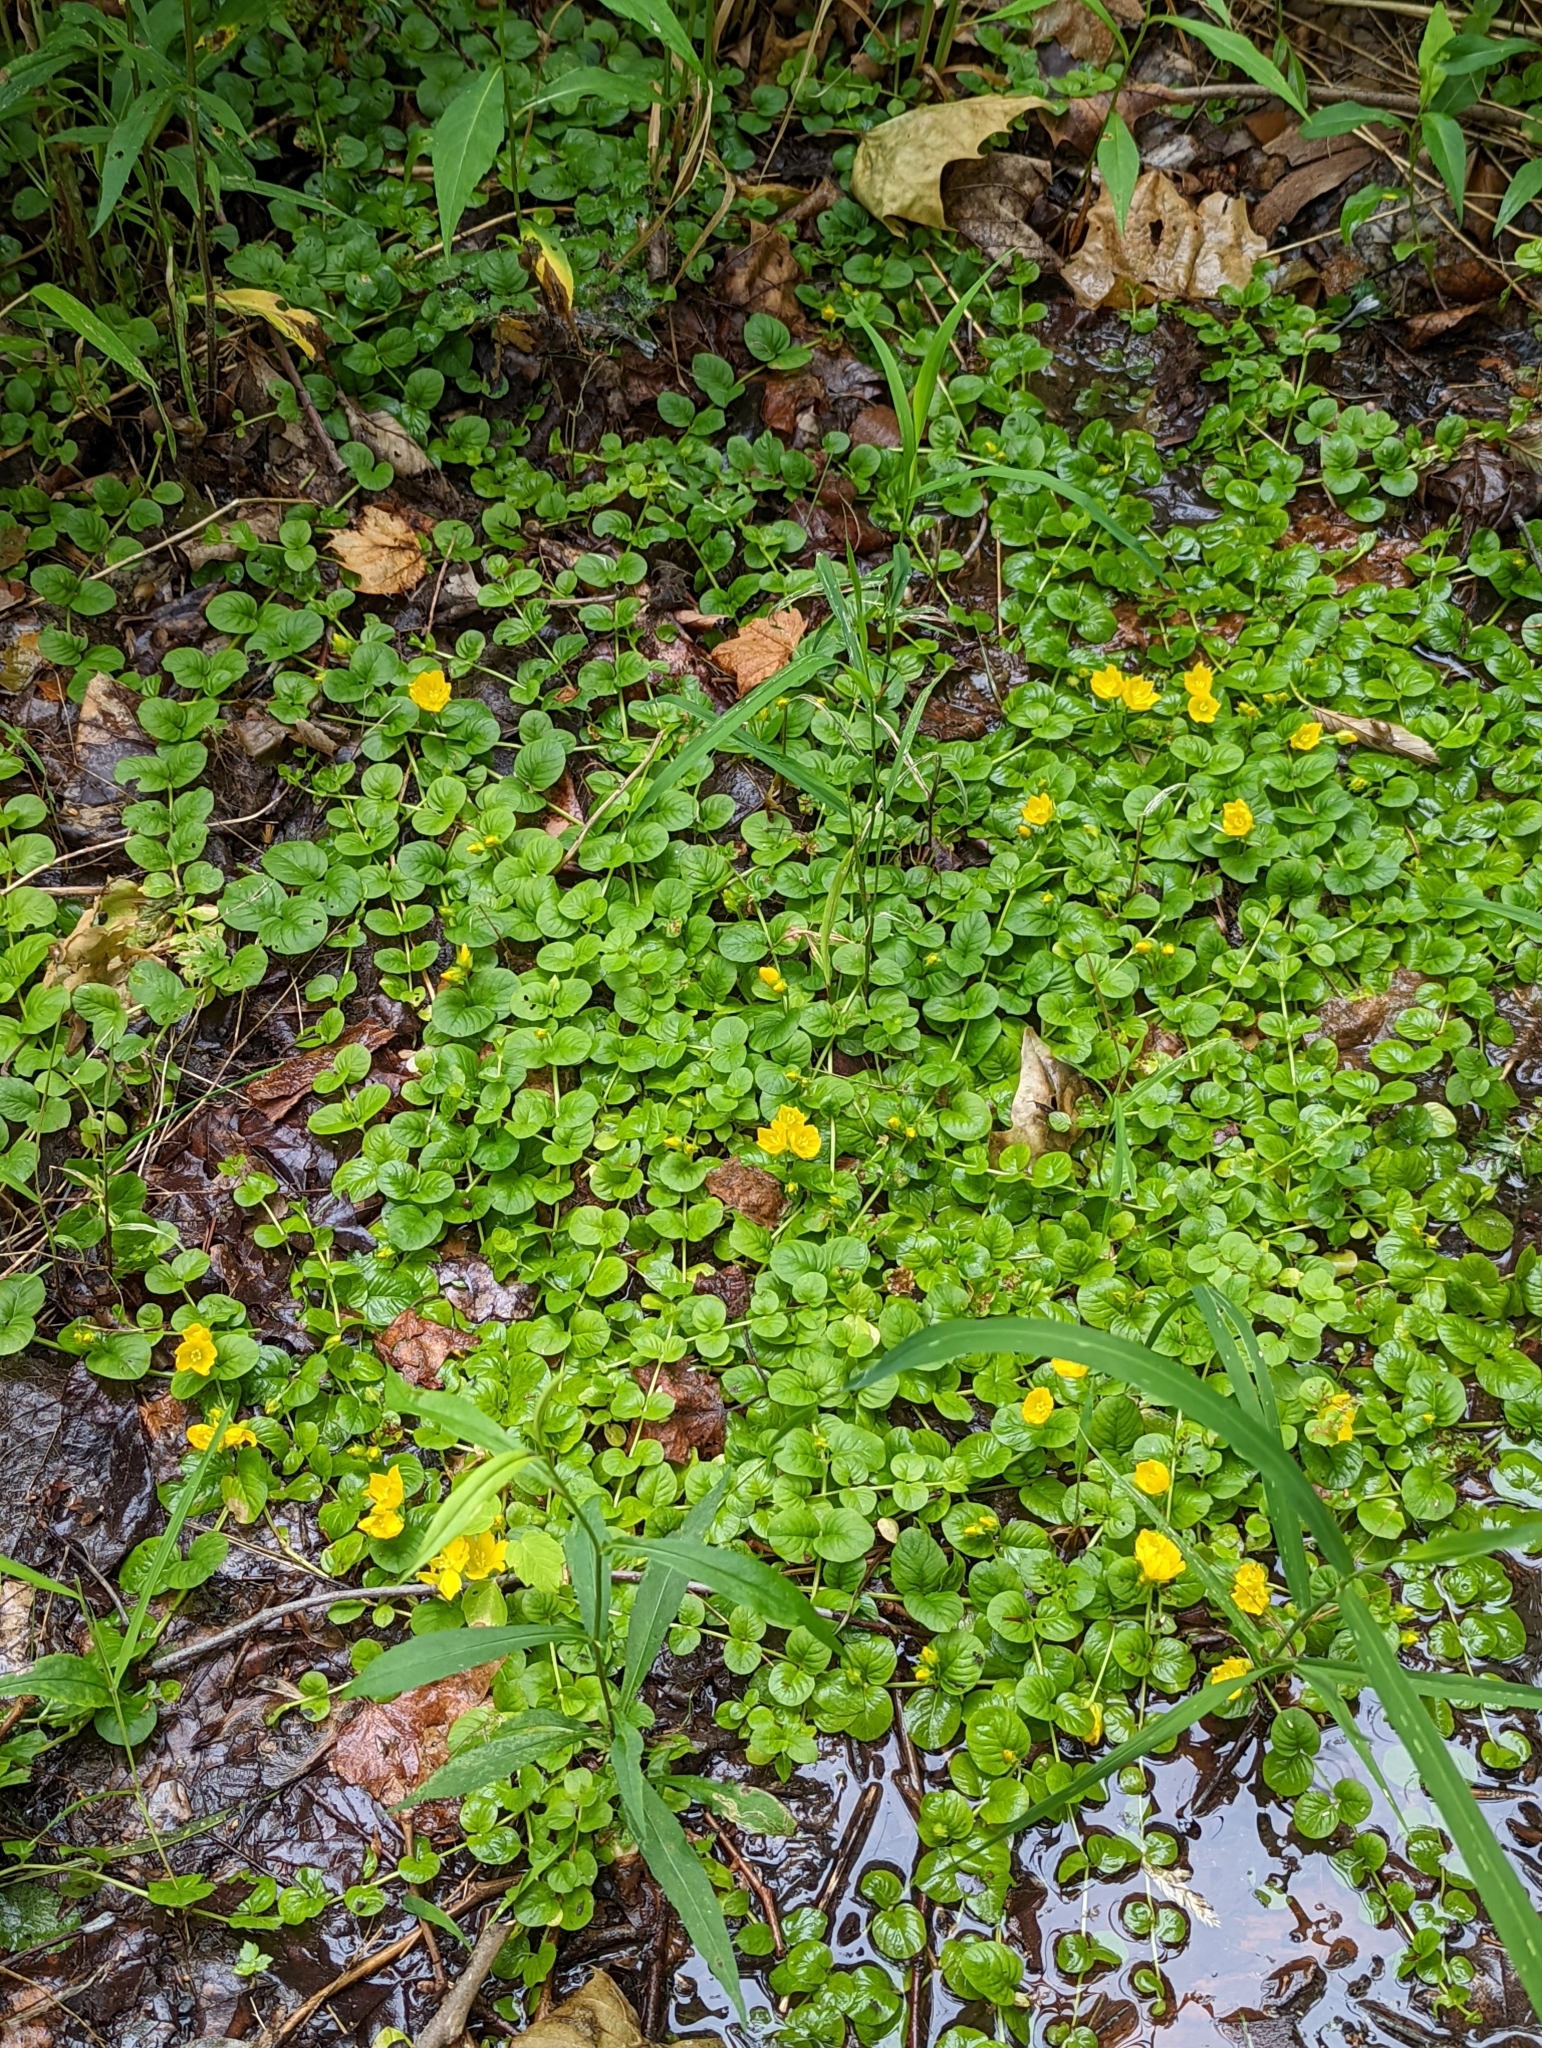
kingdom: Plantae
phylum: Tracheophyta
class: Magnoliopsida
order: Ericales
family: Primulaceae
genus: Lysimachia
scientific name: Lysimachia nummularia
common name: Moneywort
